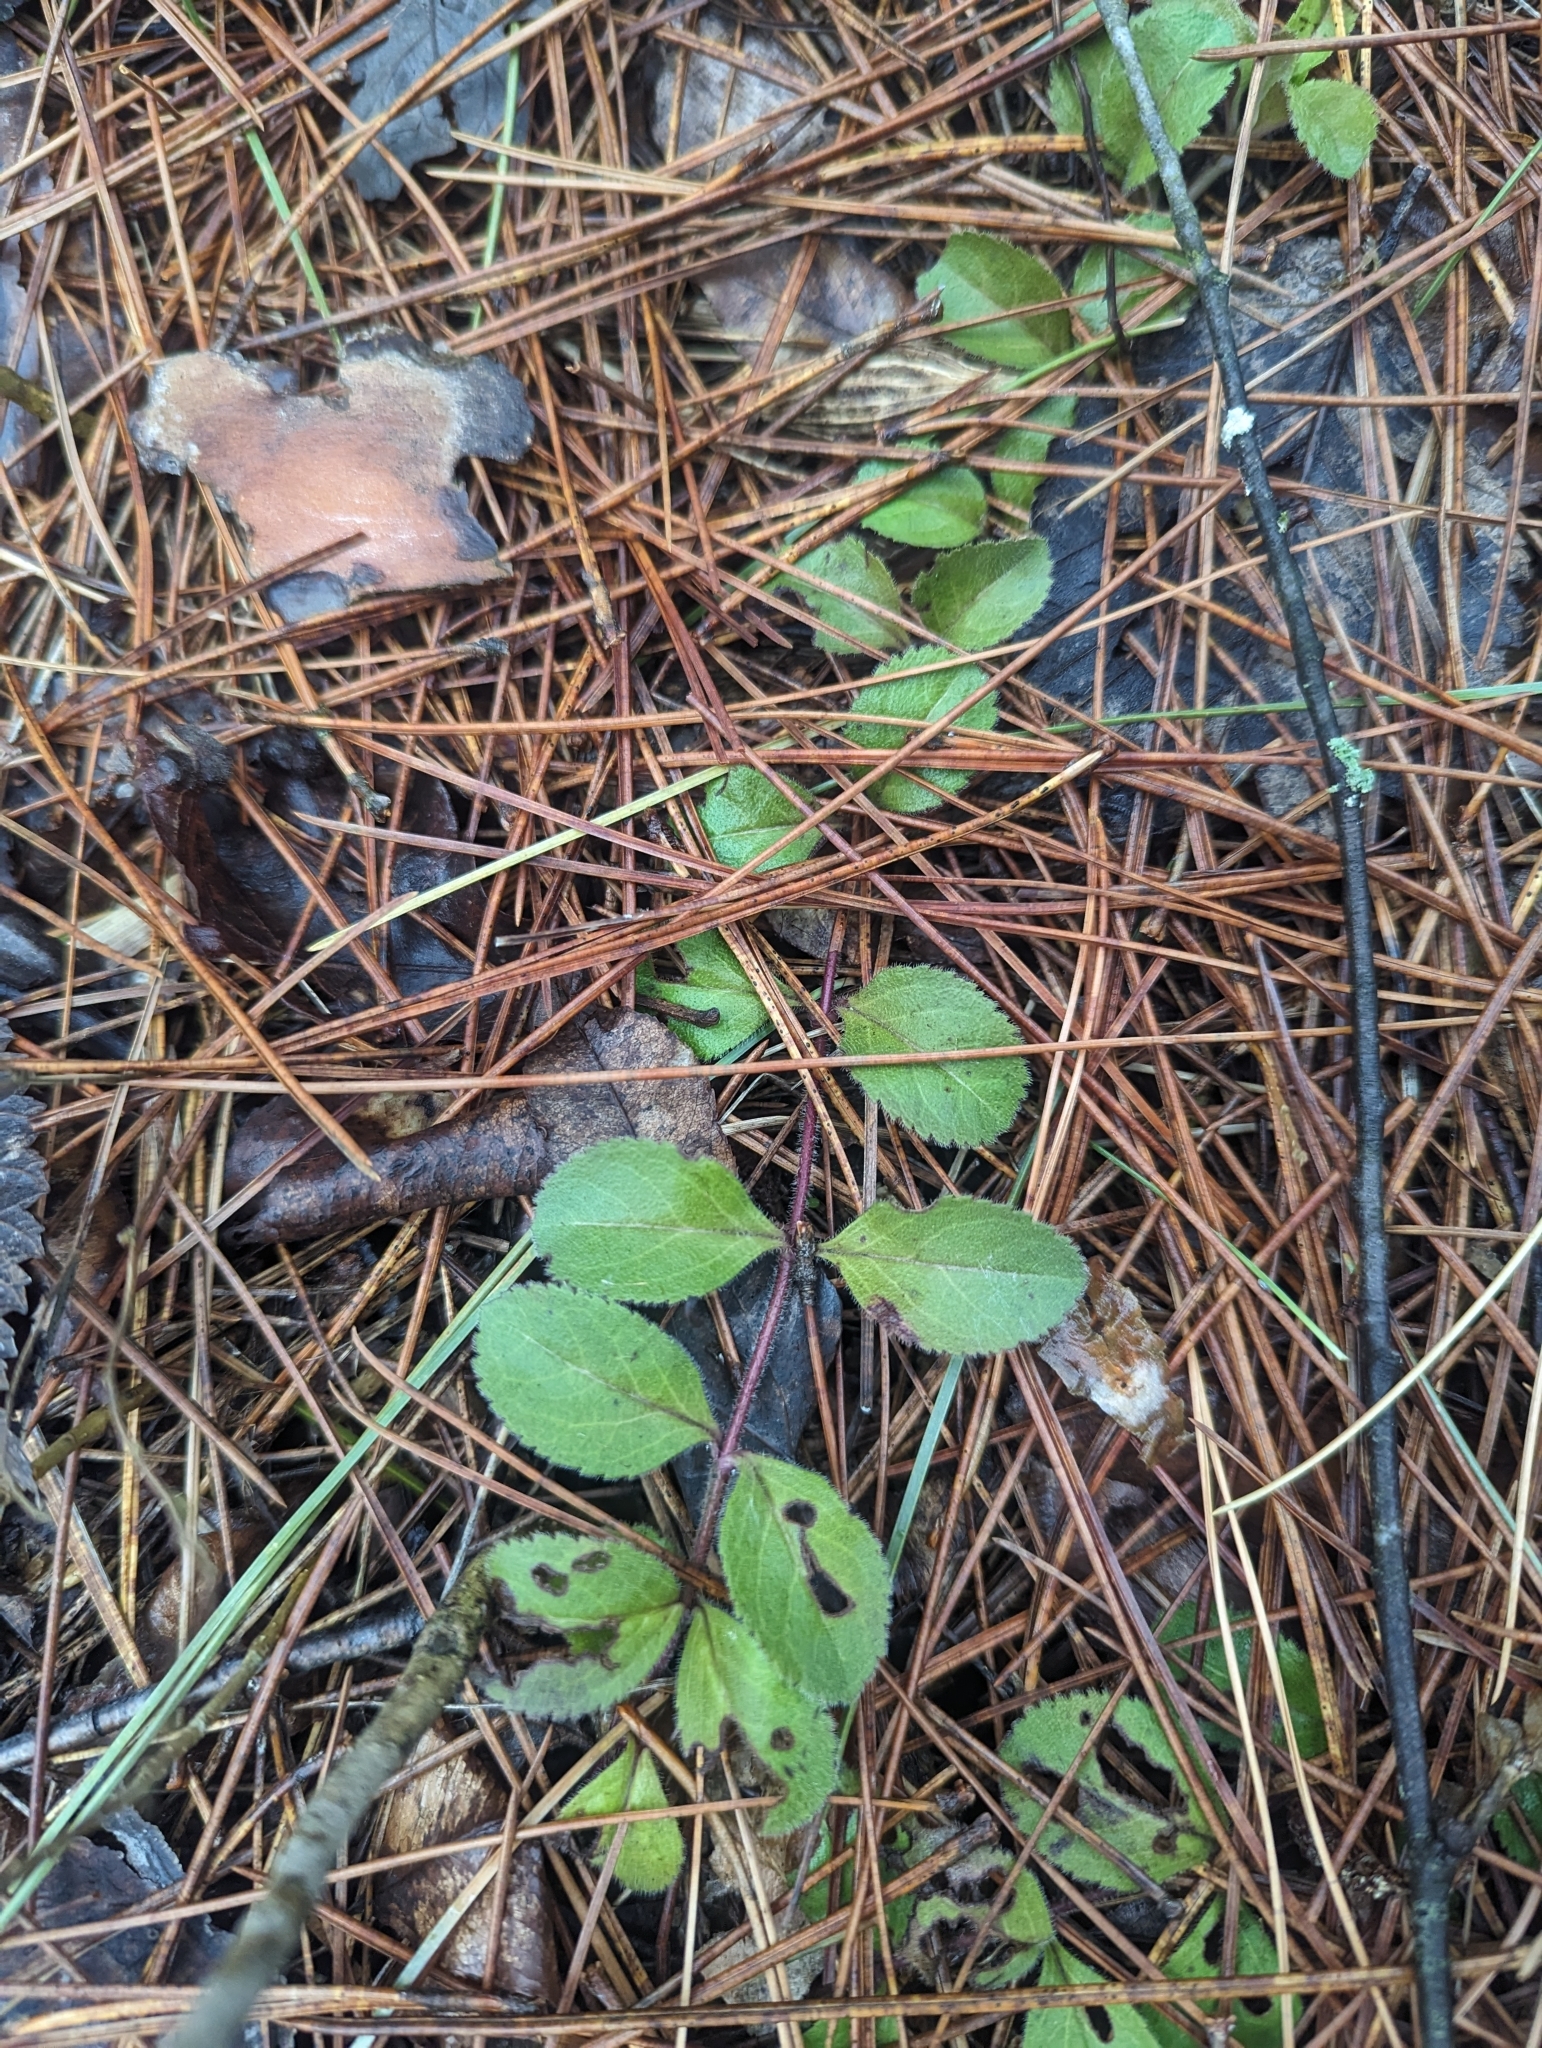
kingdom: Plantae
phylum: Tracheophyta
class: Magnoliopsida
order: Lamiales
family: Plantaginaceae
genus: Veronica
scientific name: Veronica officinalis
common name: Common speedwell
